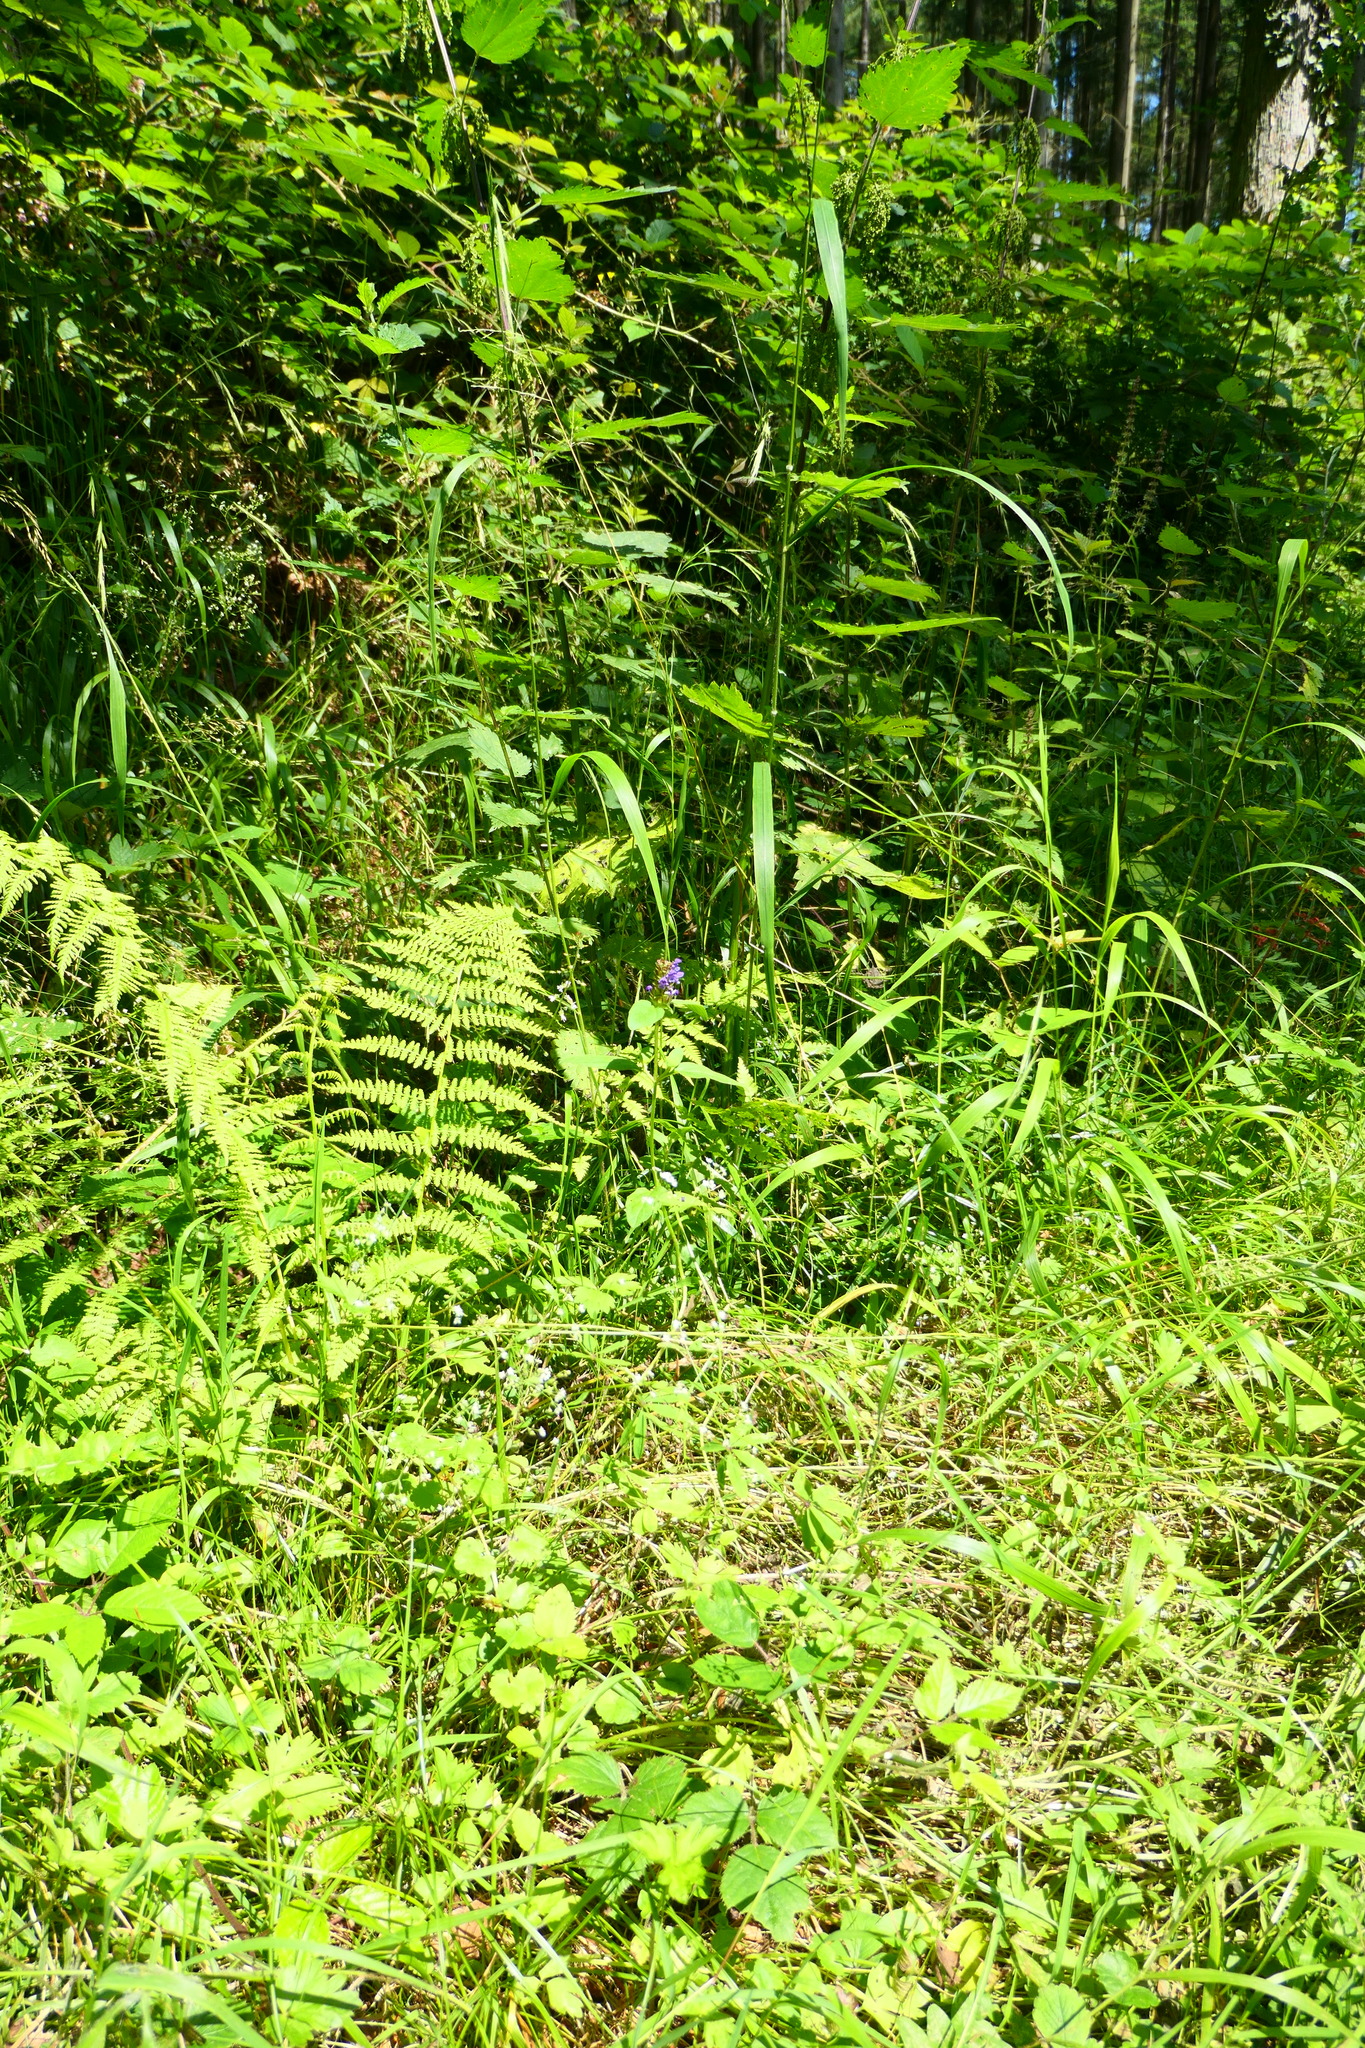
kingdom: Plantae
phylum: Tracheophyta
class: Magnoliopsida
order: Lamiales
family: Lamiaceae
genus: Prunella
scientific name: Prunella vulgaris
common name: Heal-all
